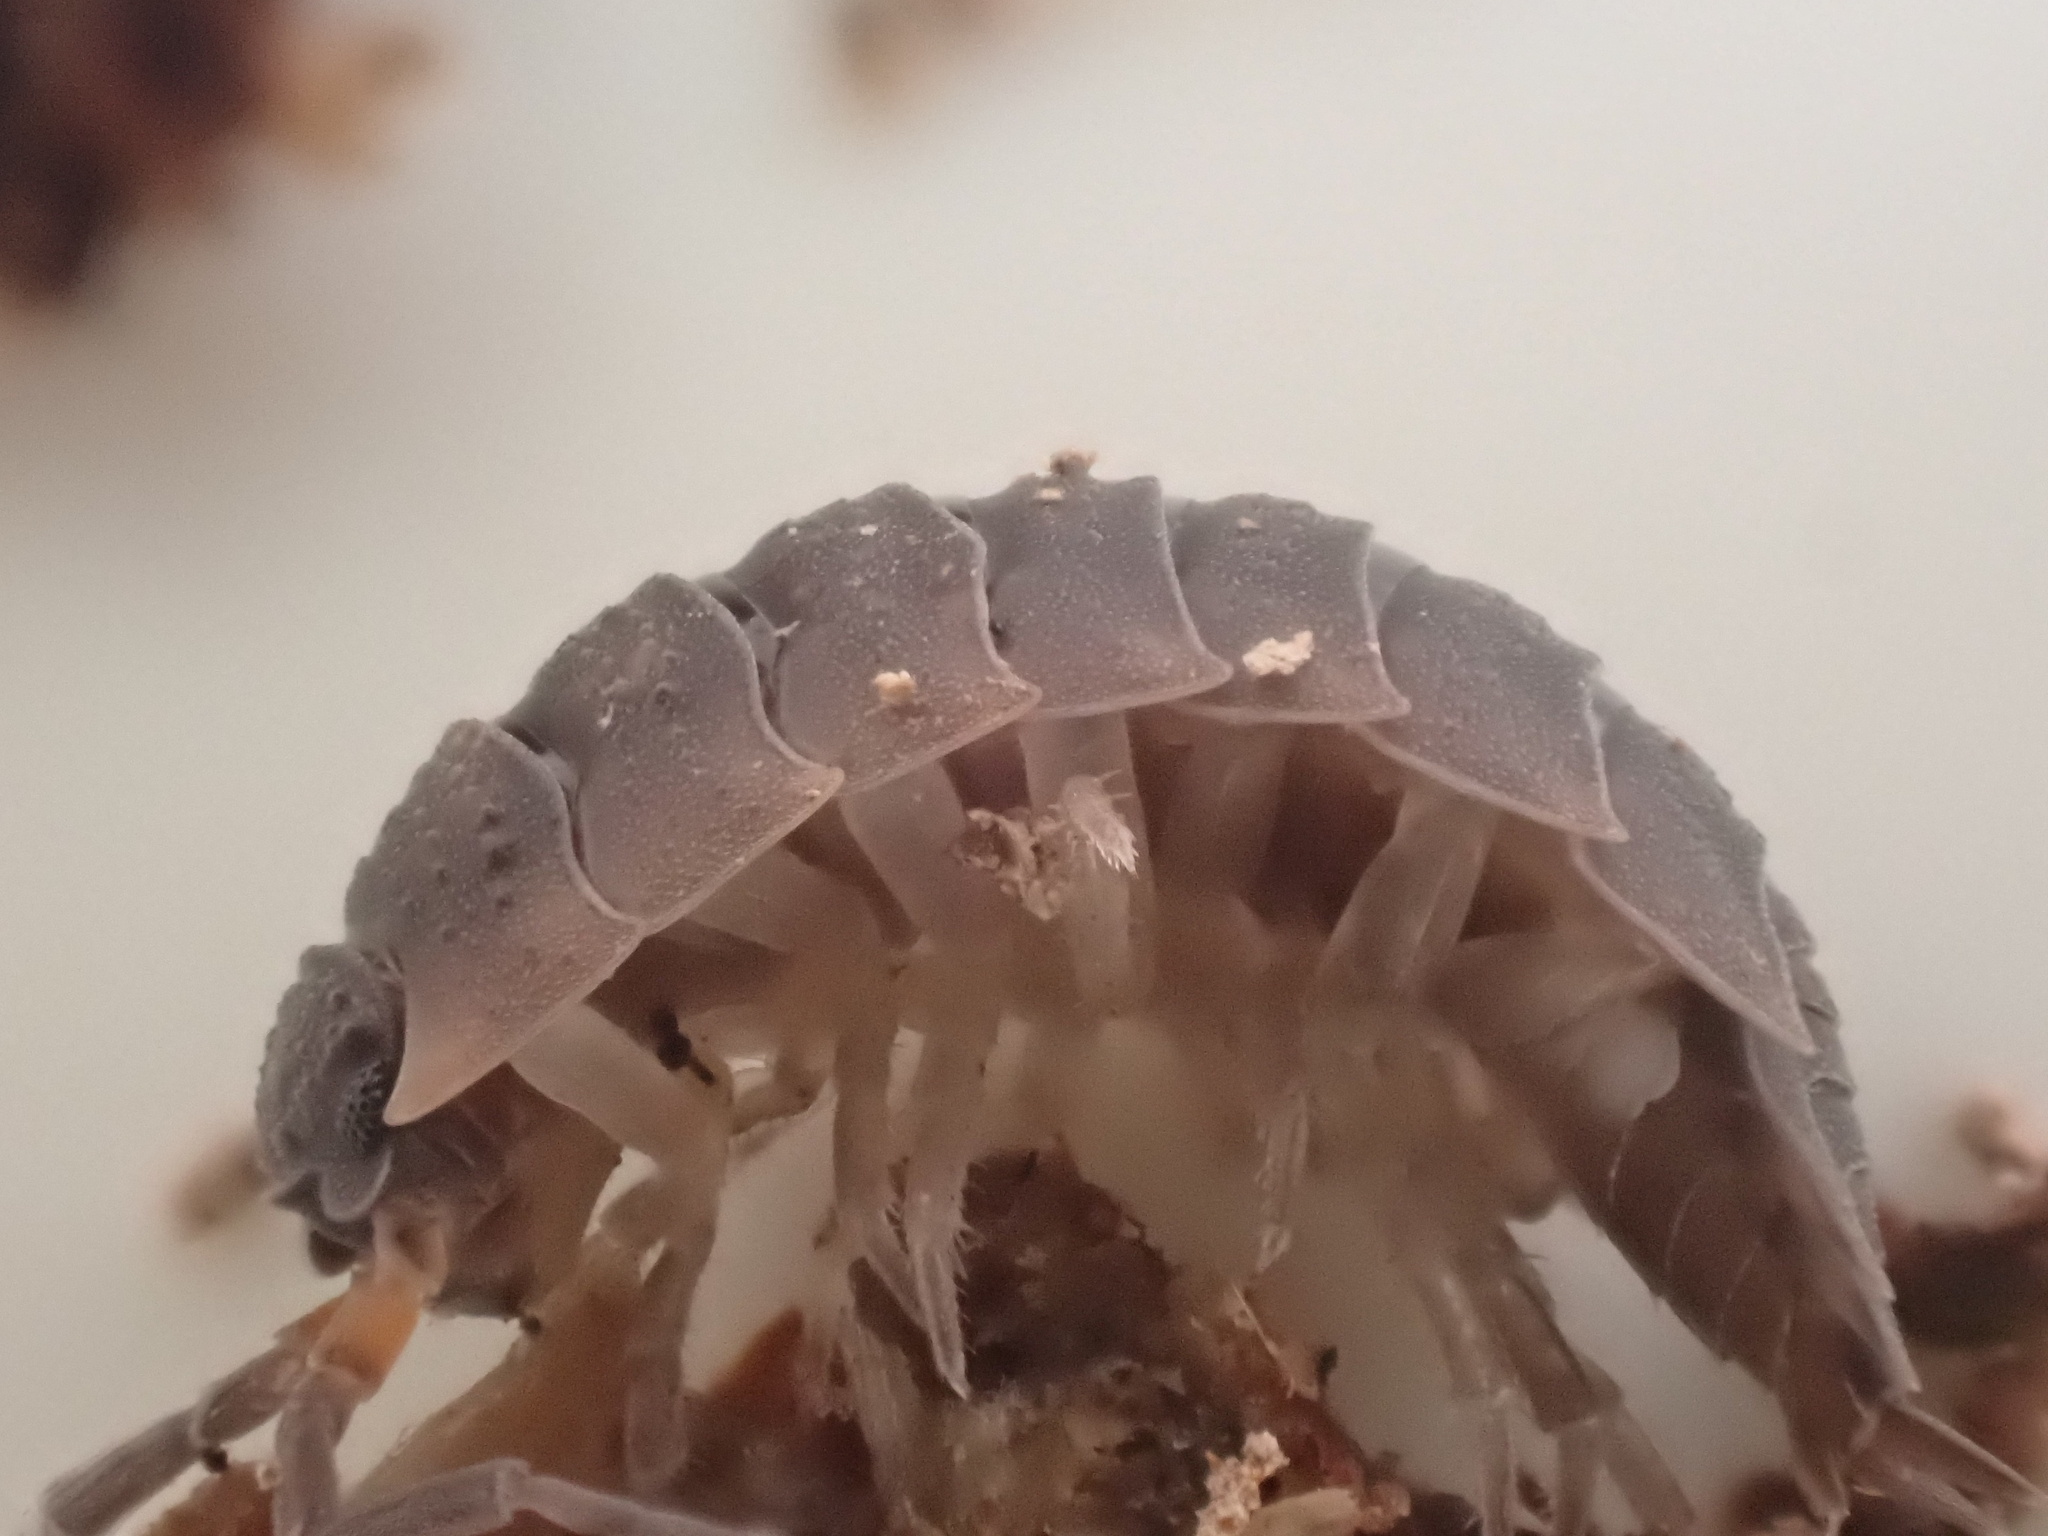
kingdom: Animalia
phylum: Arthropoda
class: Malacostraca
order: Isopoda
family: Porcellionidae
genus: Porcellio
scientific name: Porcellio scaber
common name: Common rough woodlouse
